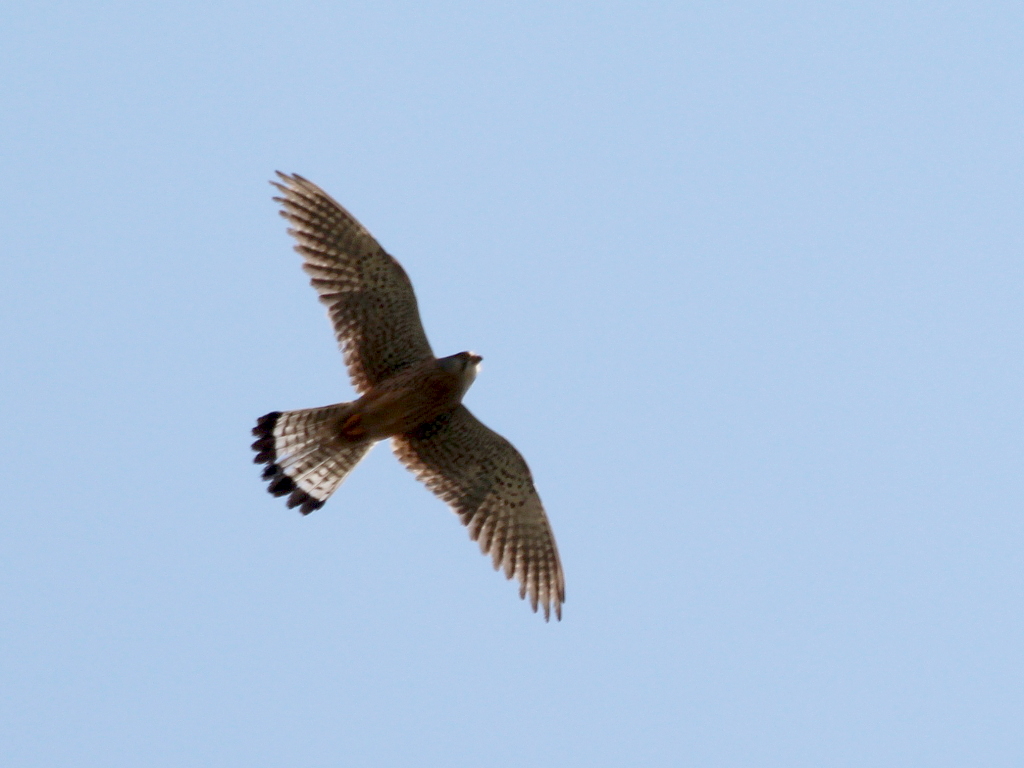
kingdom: Animalia
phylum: Chordata
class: Aves
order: Falconiformes
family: Falconidae
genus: Falco
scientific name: Falco tinnunculus
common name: Common kestrel
